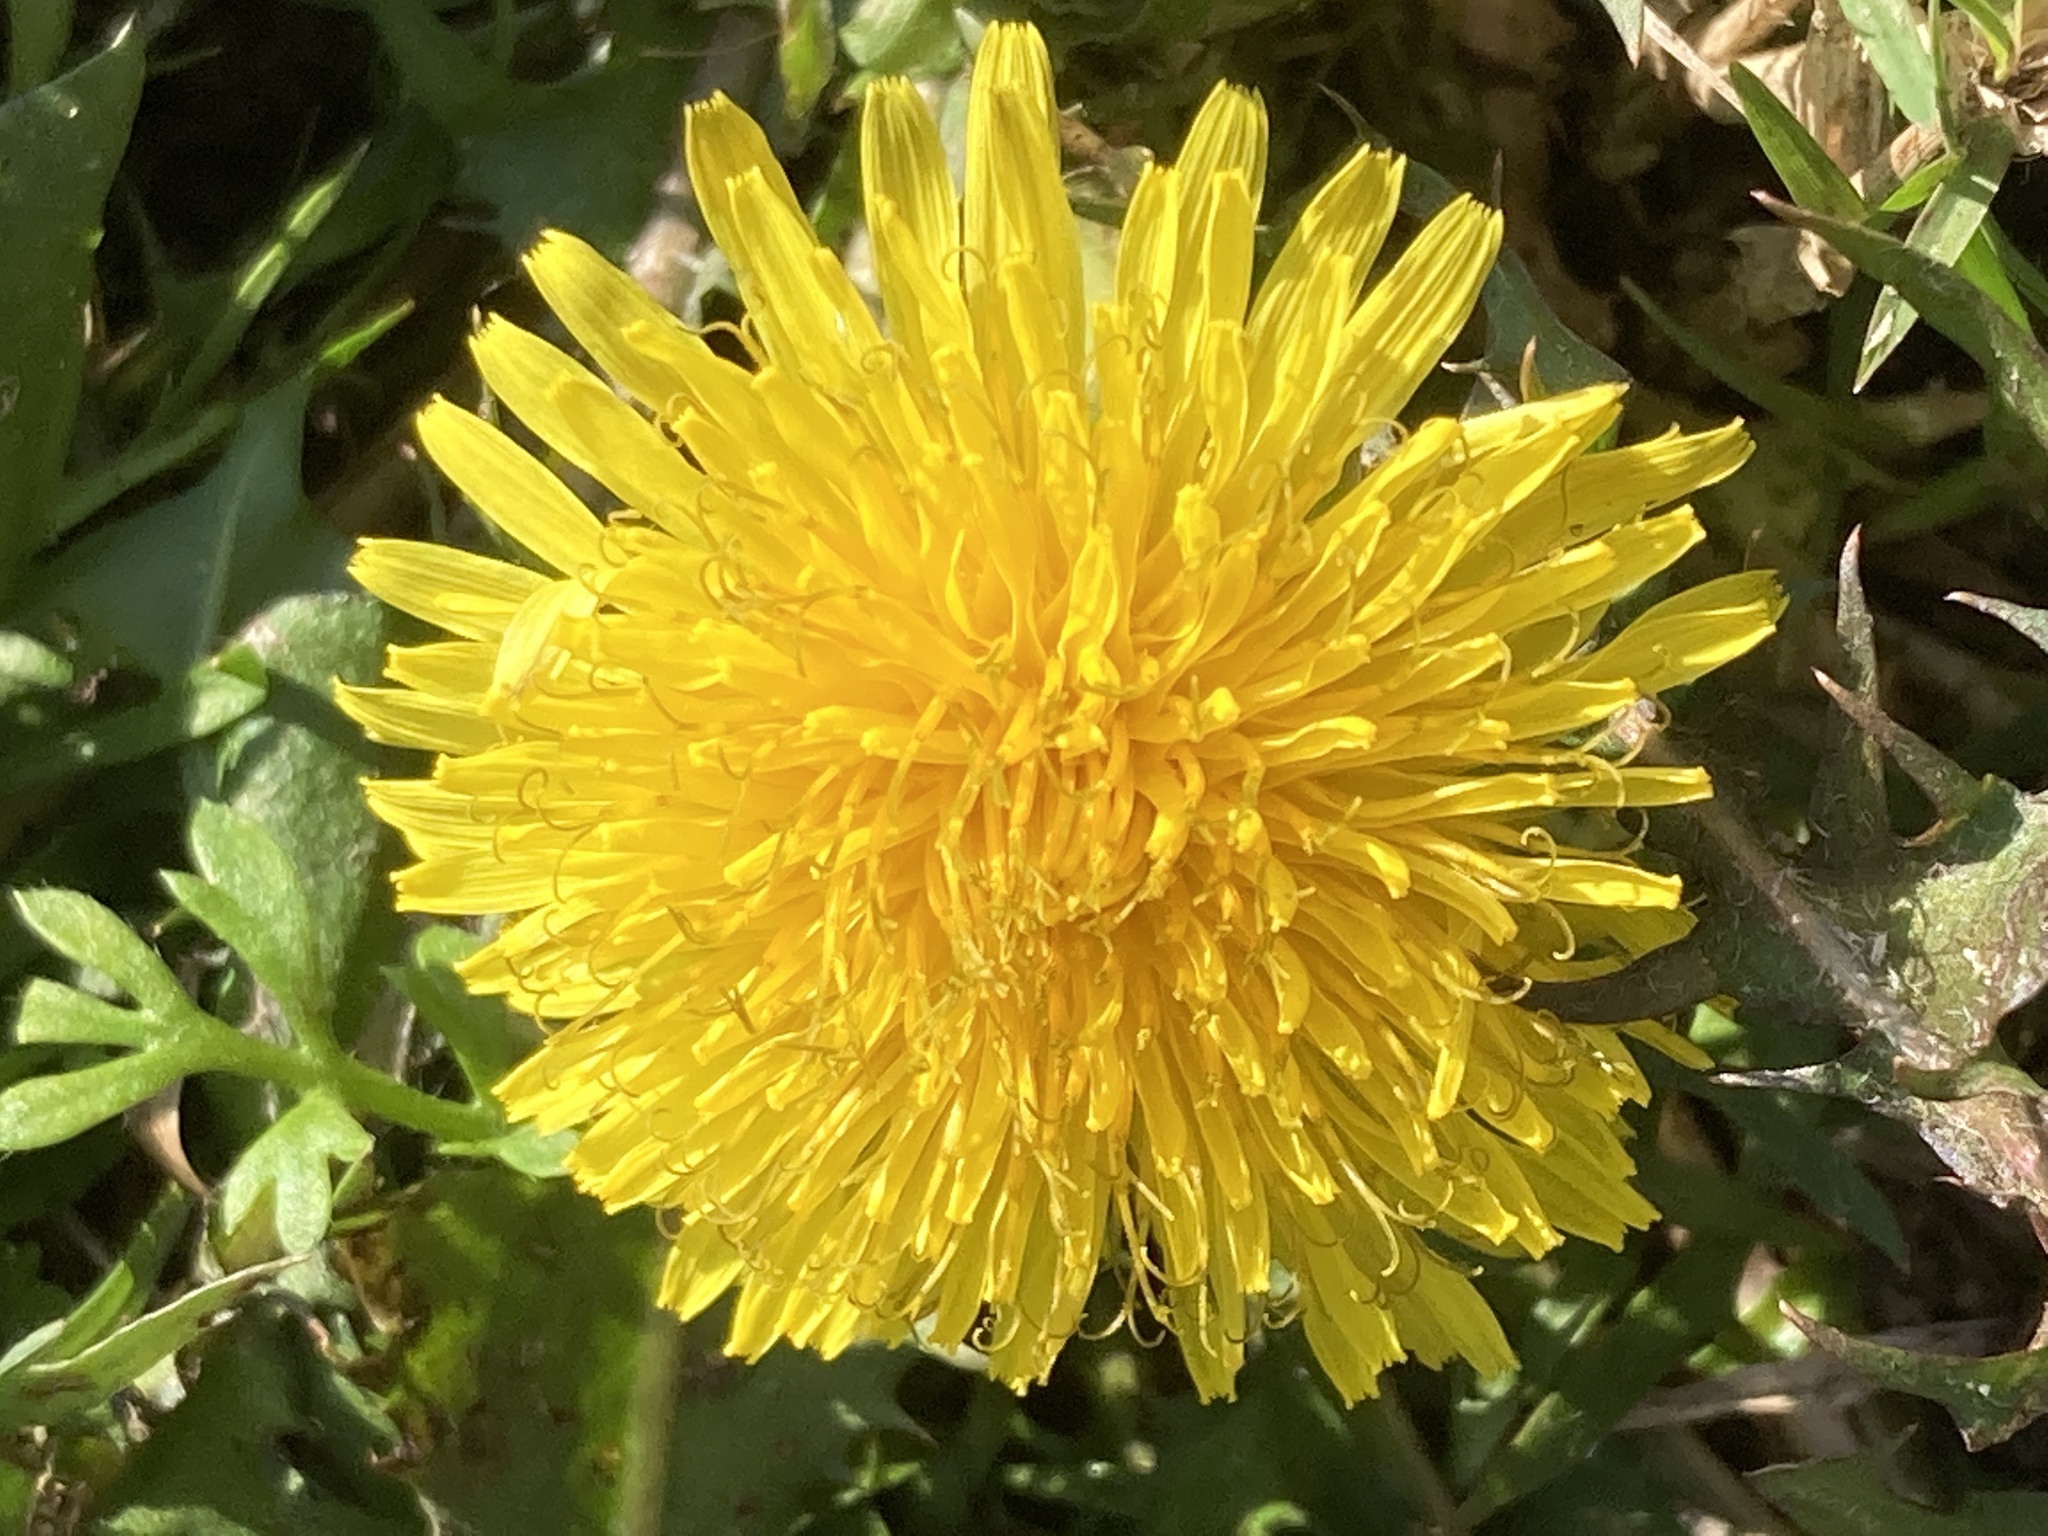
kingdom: Plantae
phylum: Tracheophyta
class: Magnoliopsida
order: Asterales
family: Asteraceae
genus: Taraxacum
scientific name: Taraxacum officinale
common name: Common dandelion
